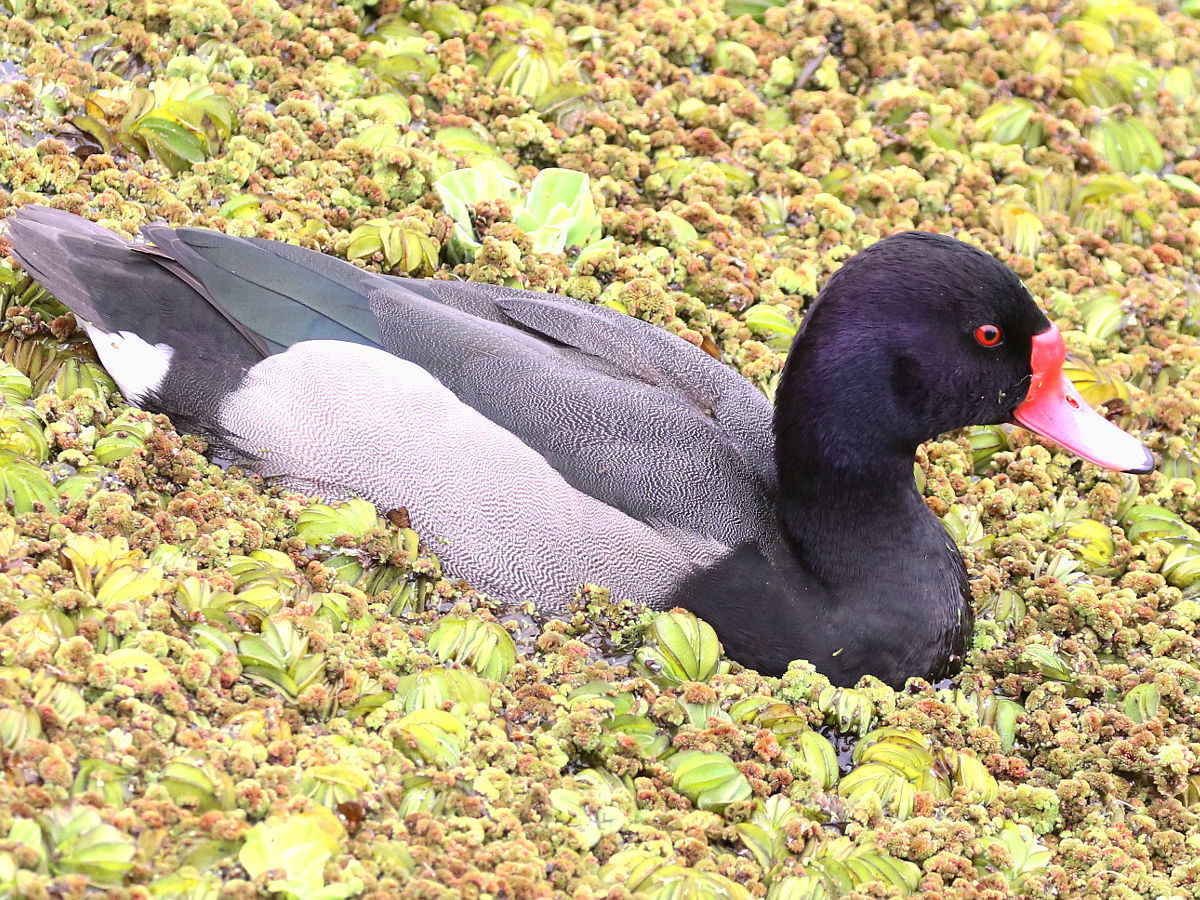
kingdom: Animalia
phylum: Chordata
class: Aves
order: Anseriformes
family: Anatidae
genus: Netta
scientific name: Netta peposaca
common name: Rosy-billed pochard
